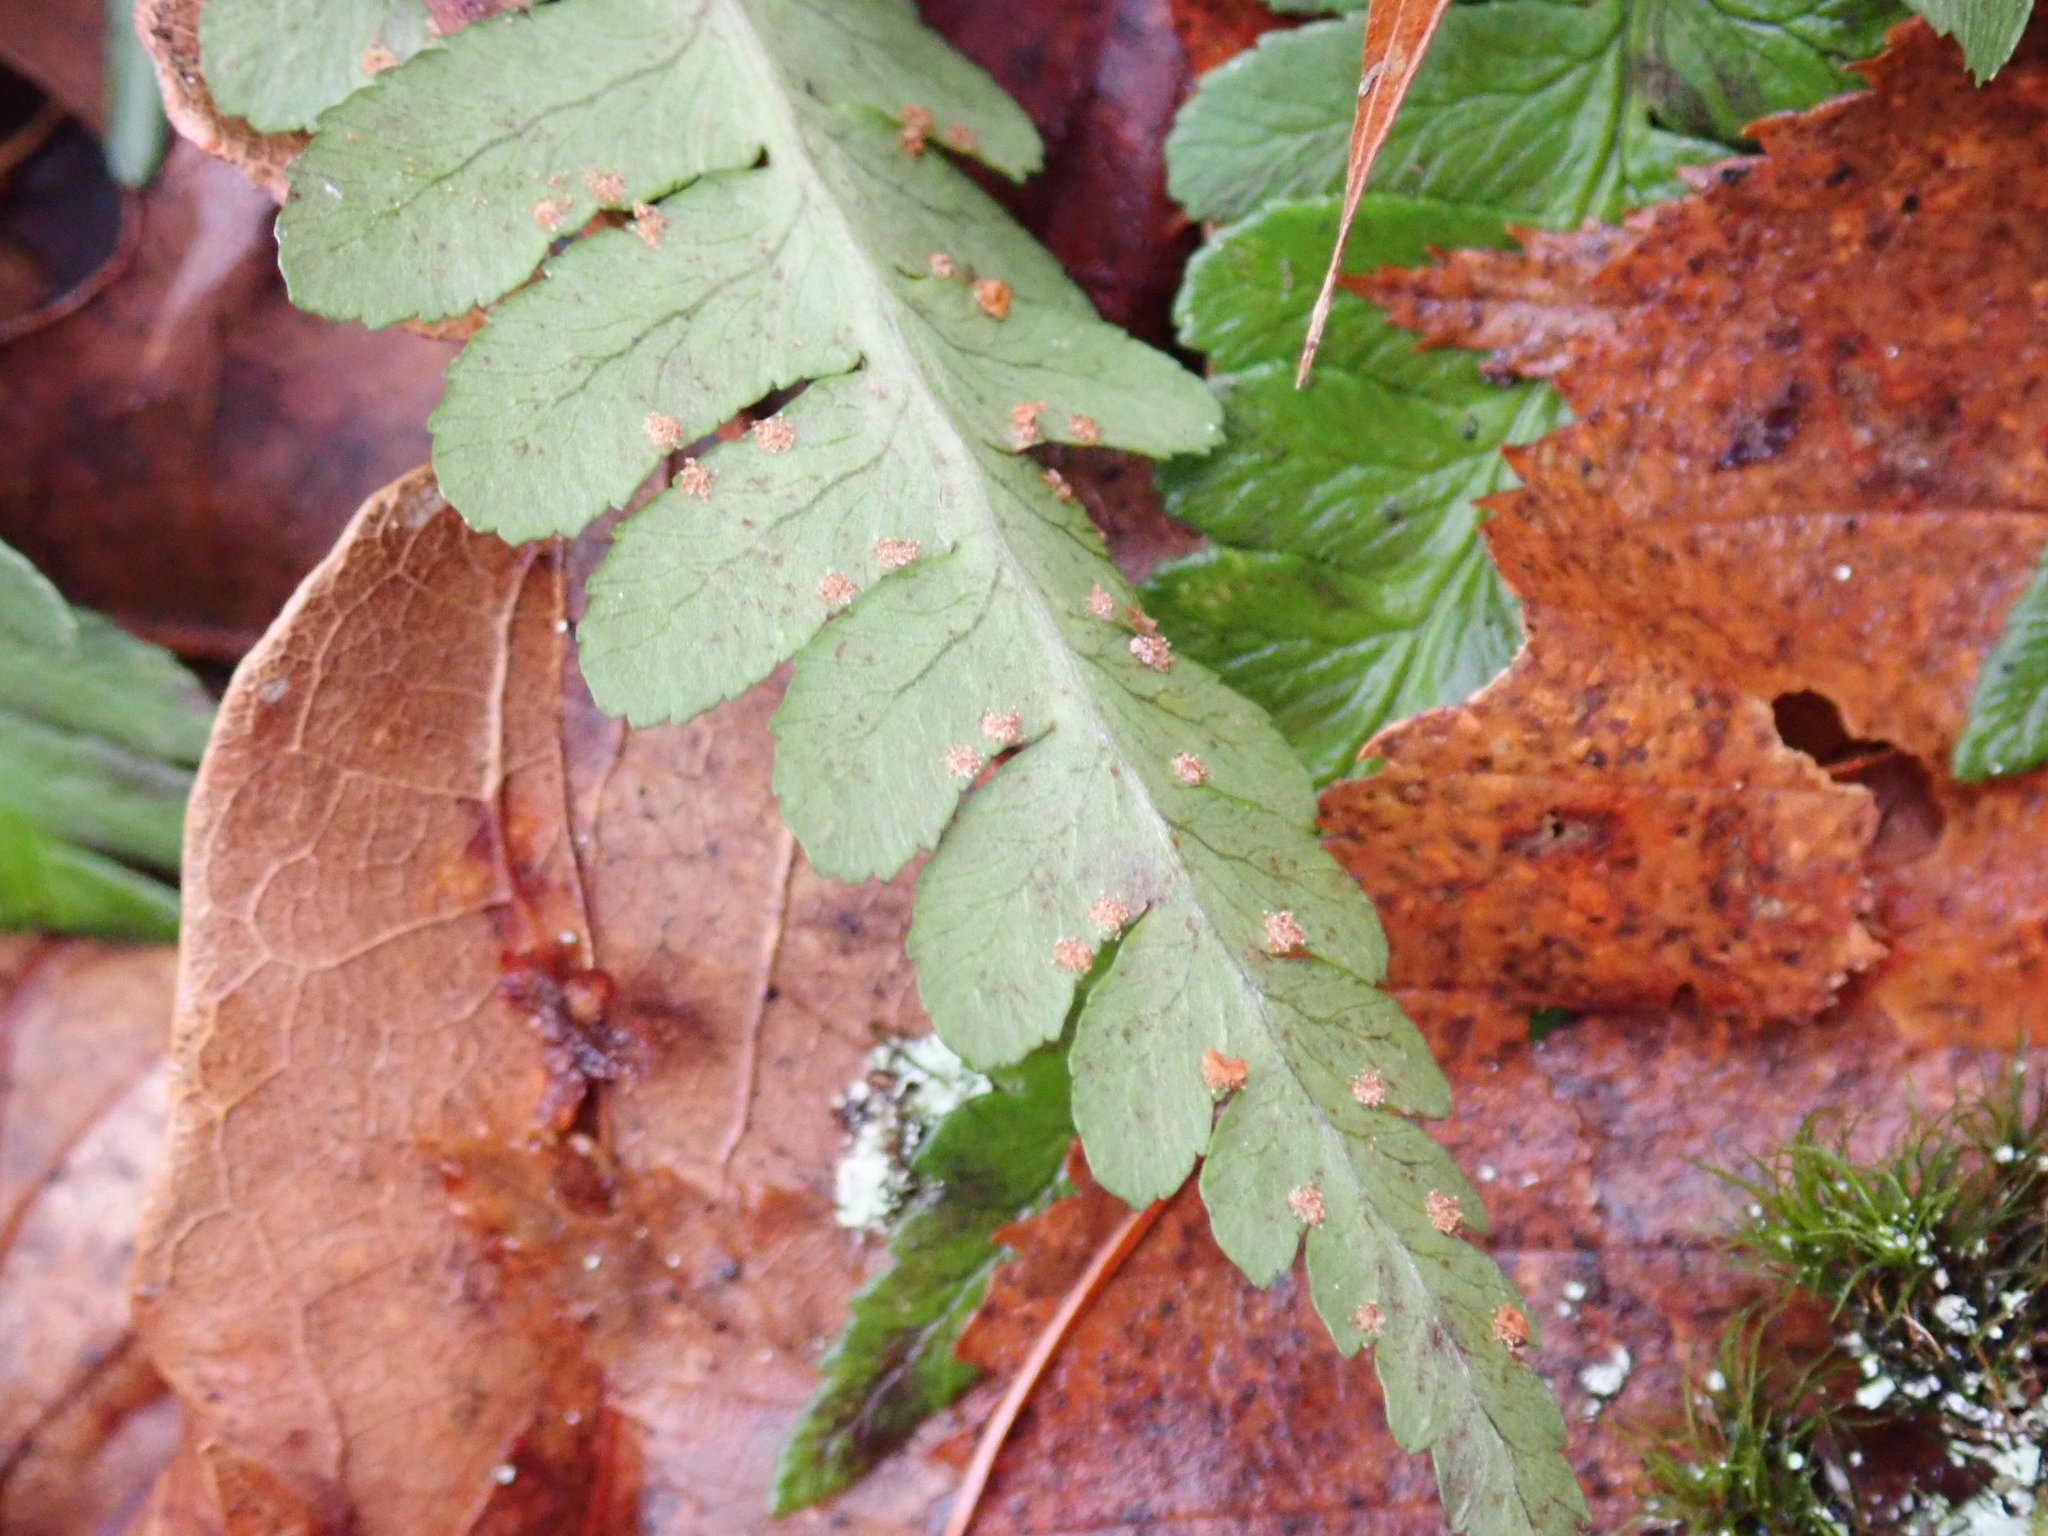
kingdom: Plantae
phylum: Tracheophyta
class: Polypodiopsida
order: Polypodiales
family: Dryopteridaceae
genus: Dryopteris
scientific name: Dryopteris marginalis
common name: Marginal wood fern
